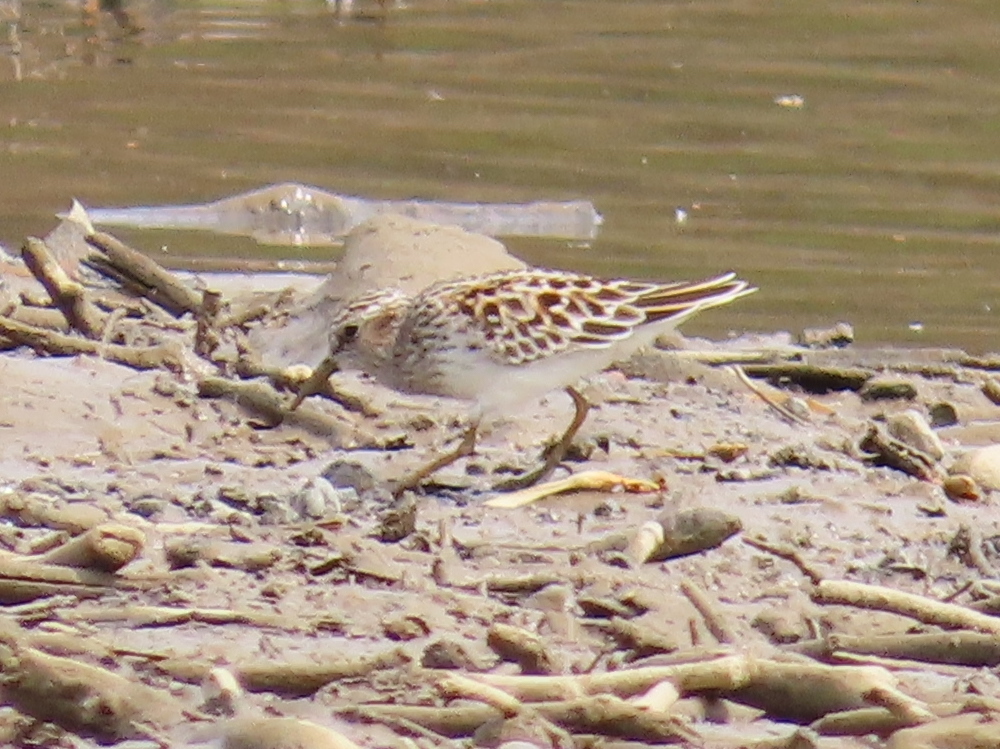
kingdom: Animalia
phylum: Chordata
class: Aves
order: Charadriiformes
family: Scolopacidae
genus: Calidris
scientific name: Calidris minutilla
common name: Least sandpiper
